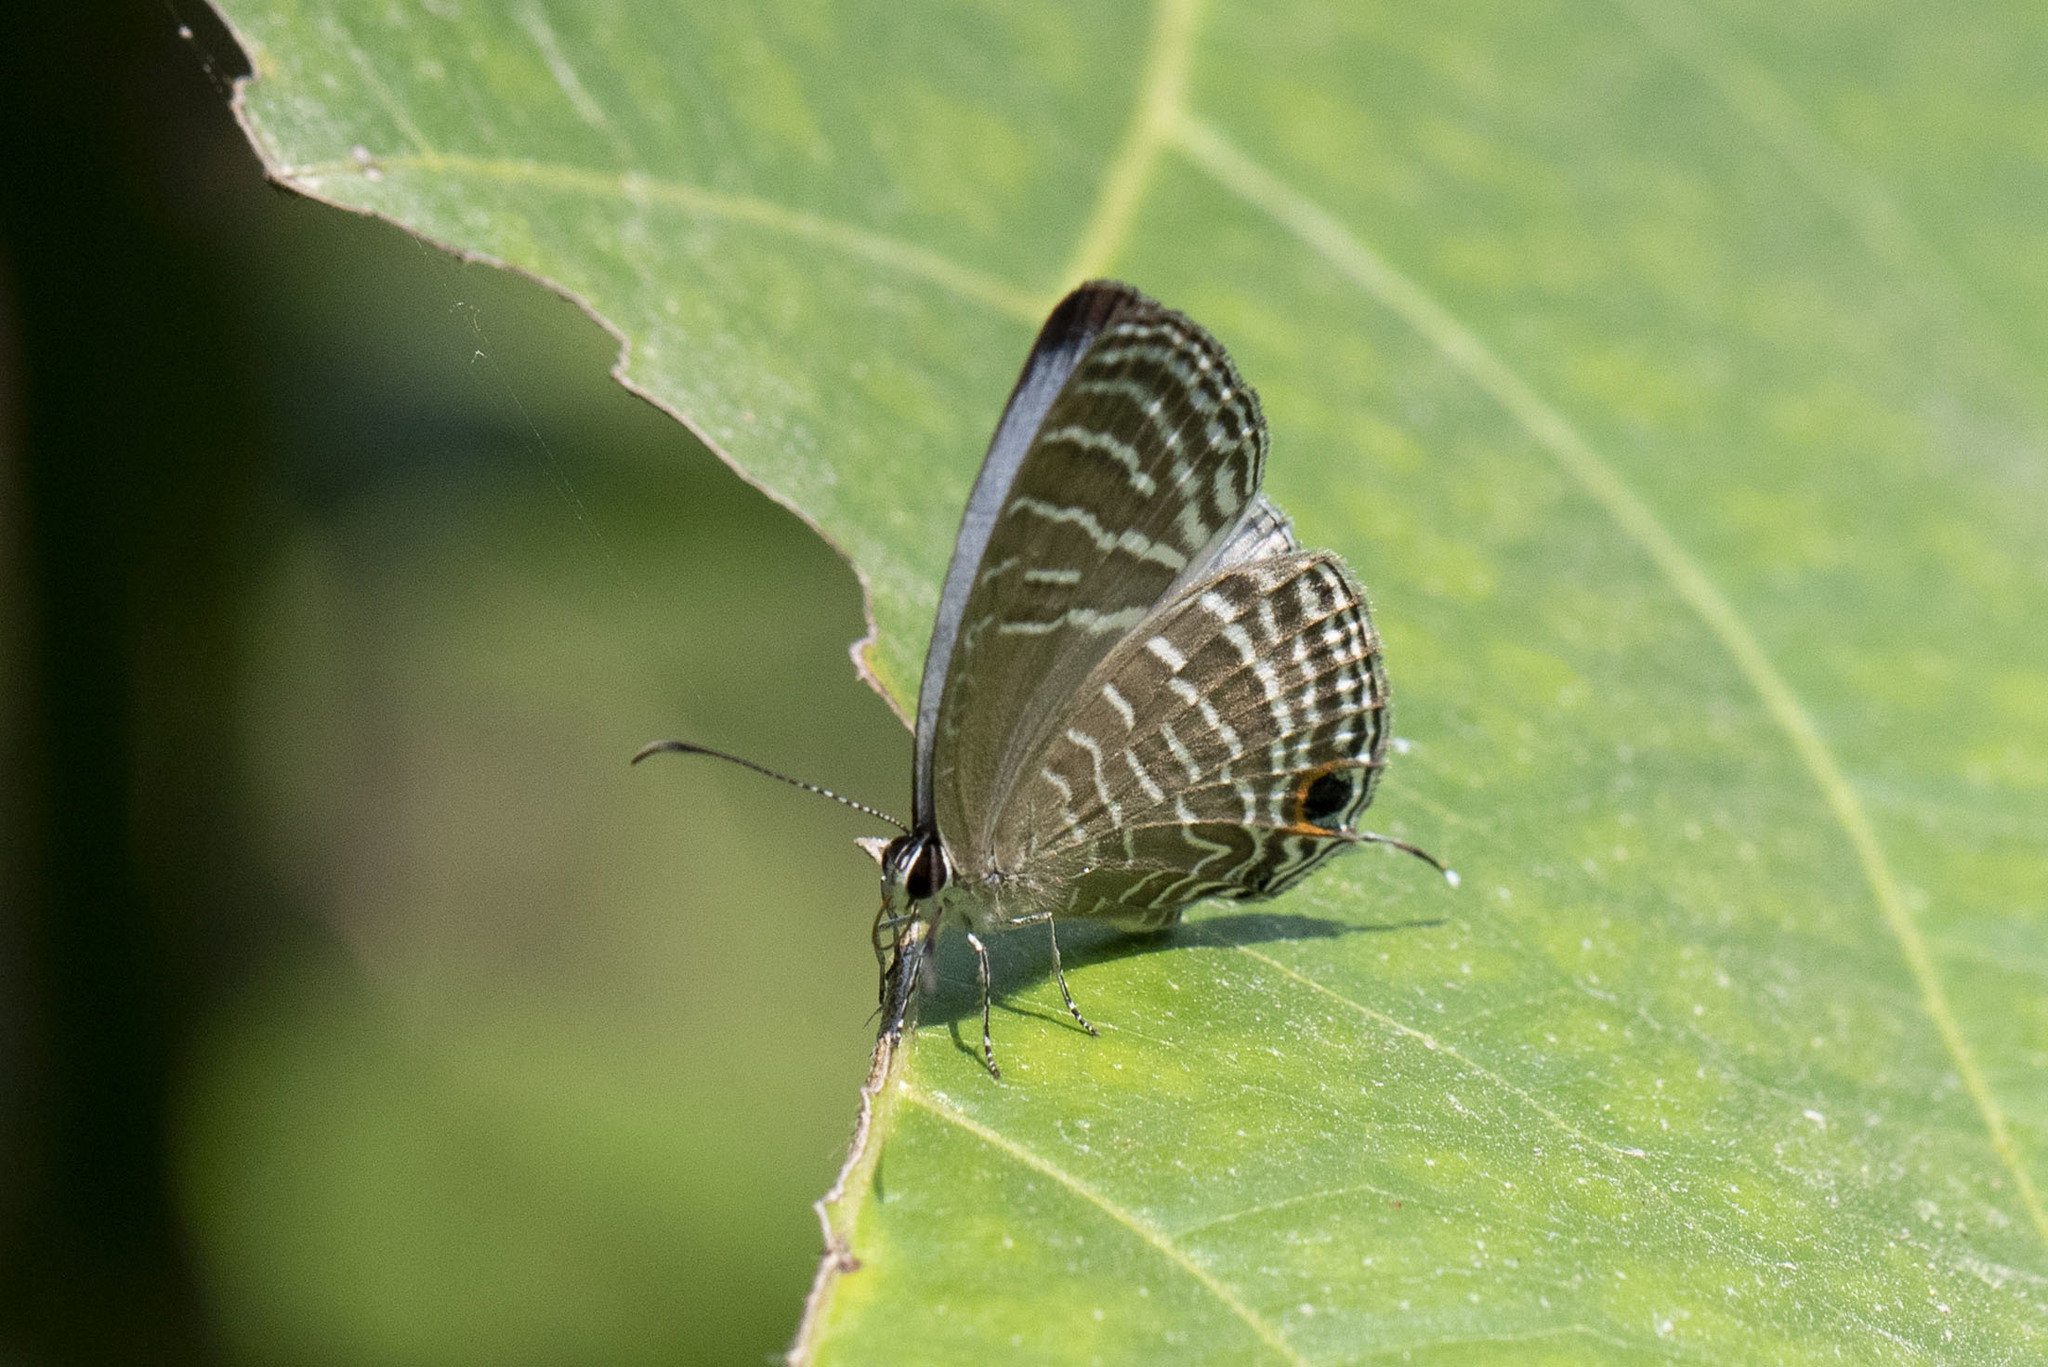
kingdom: Animalia
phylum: Arthropoda
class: Insecta
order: Lepidoptera
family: Lycaenidae
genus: Jamides
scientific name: Jamides celeno
